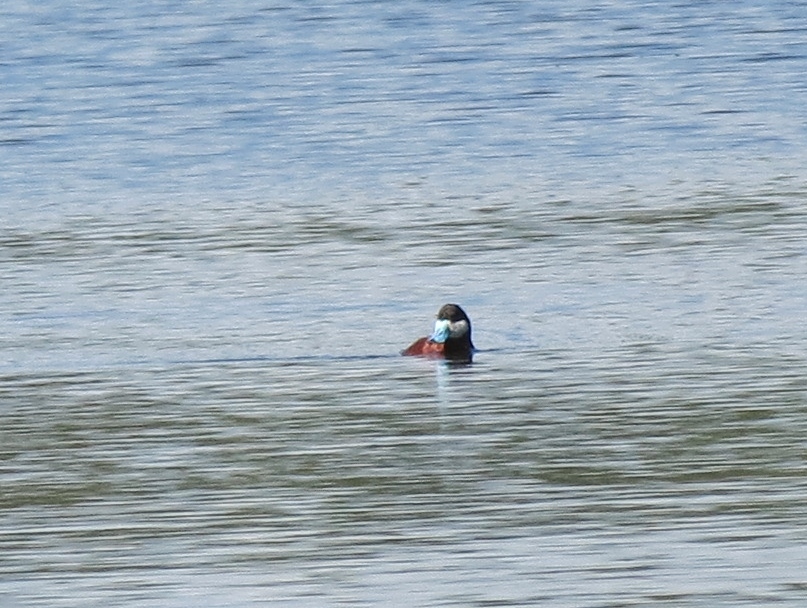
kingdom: Animalia
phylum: Chordata
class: Aves
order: Anseriformes
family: Anatidae
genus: Oxyura
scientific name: Oxyura jamaicensis
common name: Ruddy duck
